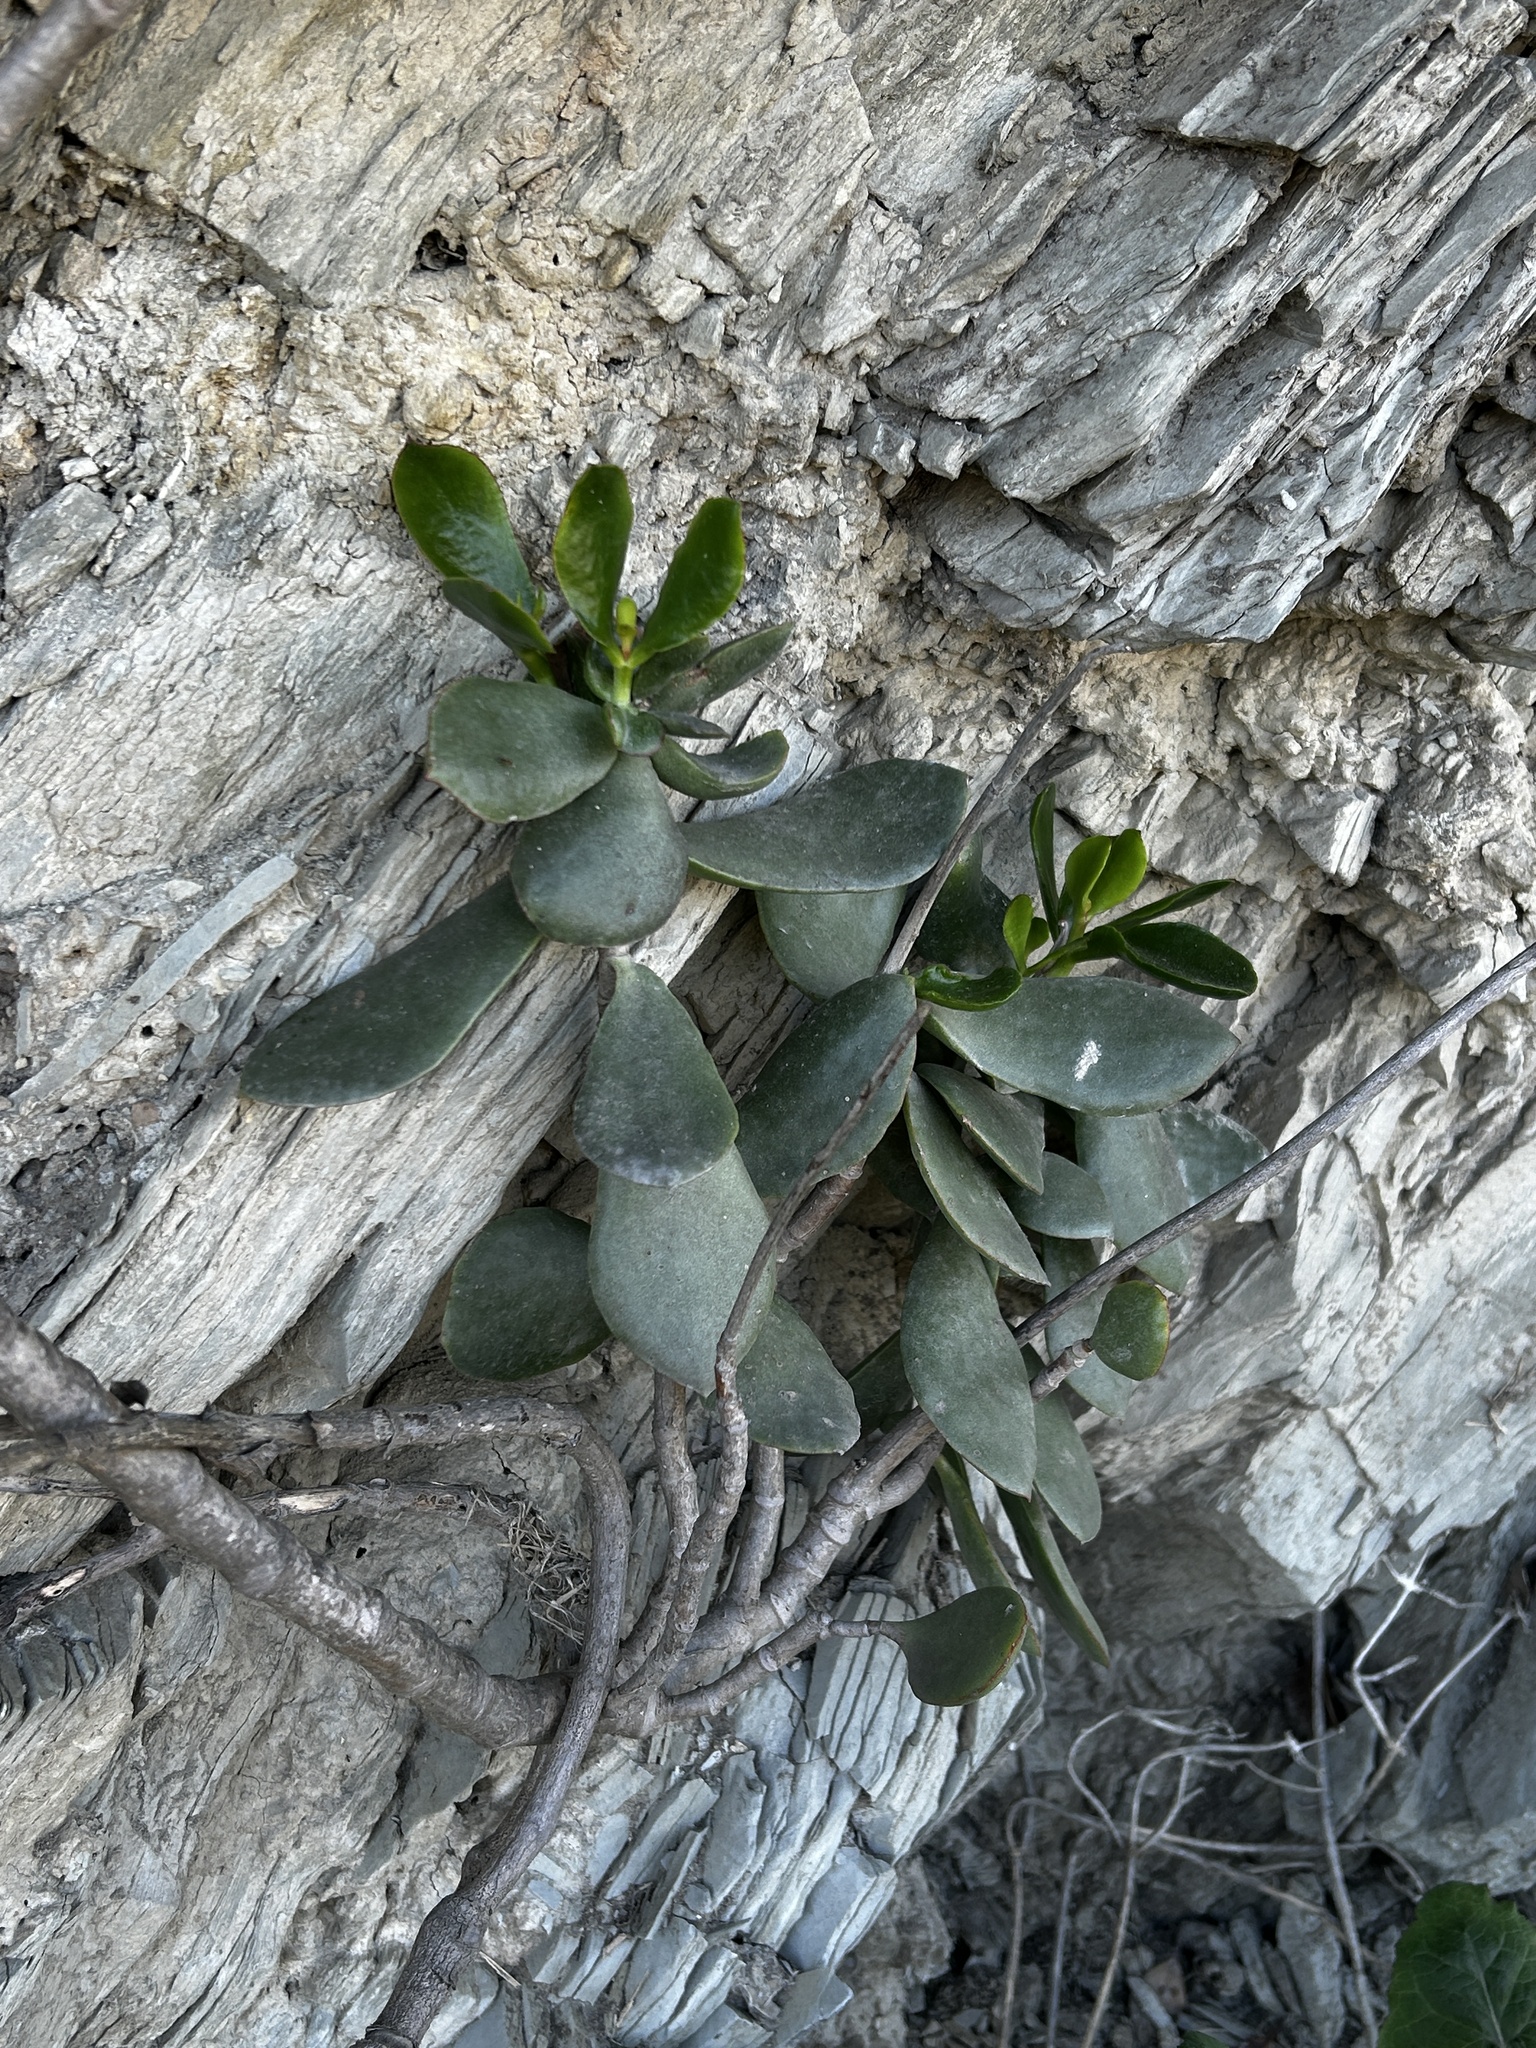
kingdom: Plantae
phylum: Tracheophyta
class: Magnoliopsida
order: Saxifragales
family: Crassulaceae
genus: Crassula
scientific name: Crassula cultrata
